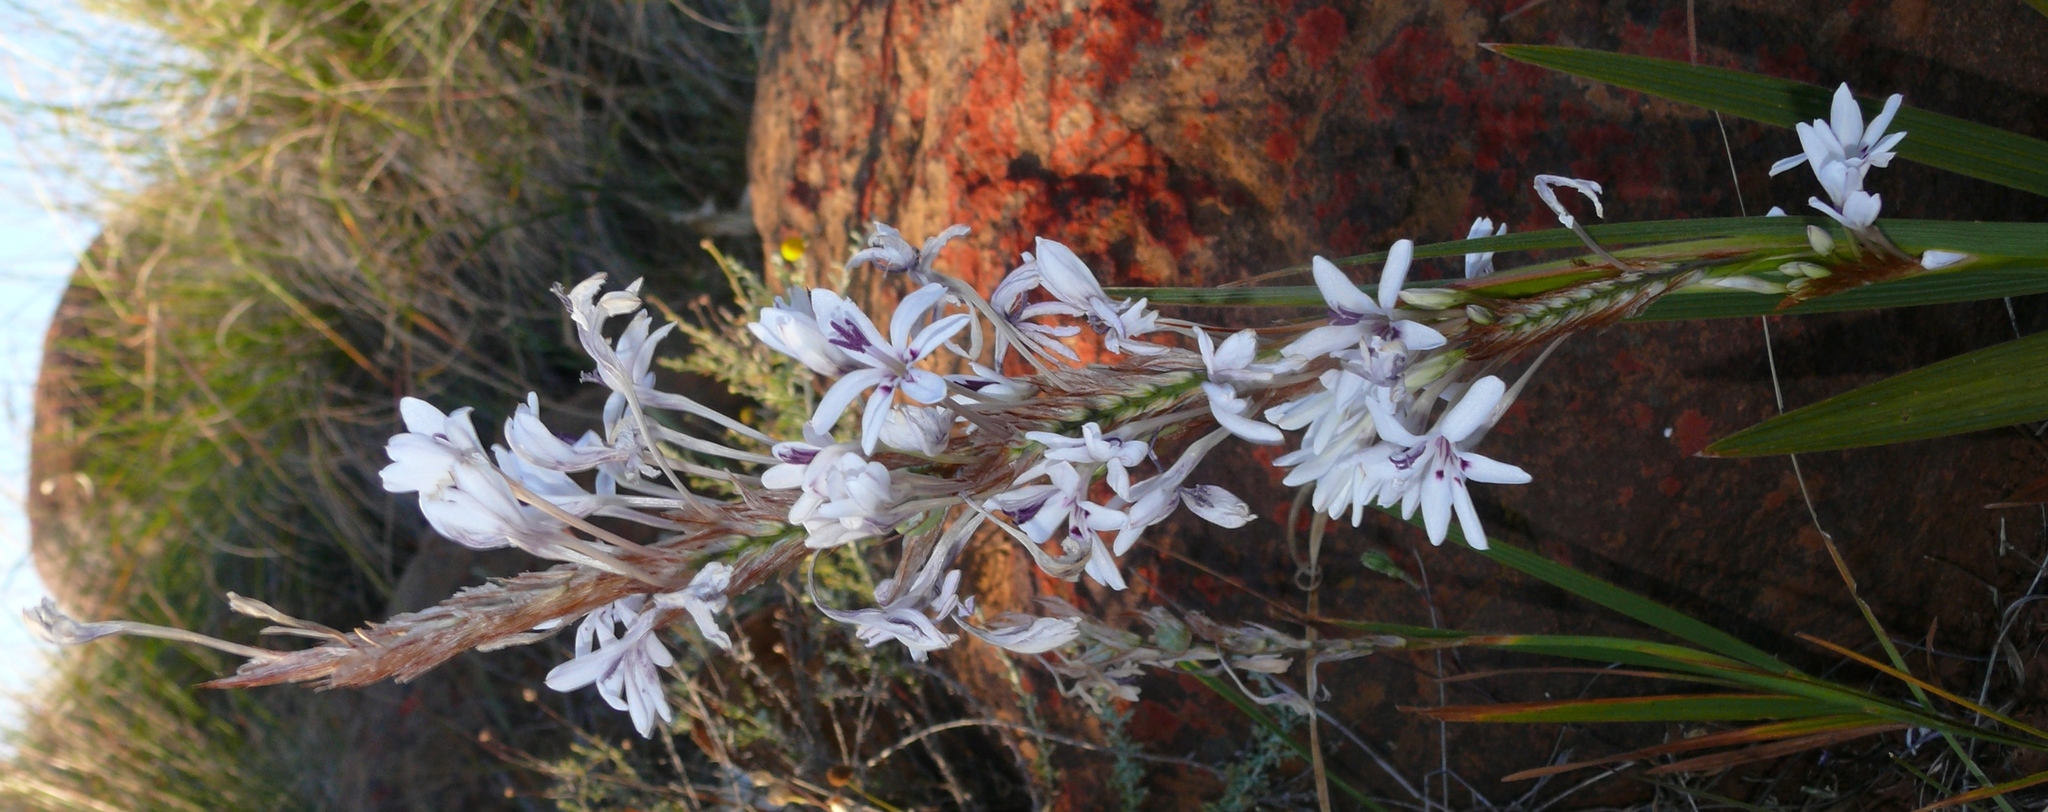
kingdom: Plantae
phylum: Tracheophyta
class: Liliopsida
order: Asparagales
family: Iridaceae
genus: Babiana
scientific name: Babiana spathacea
